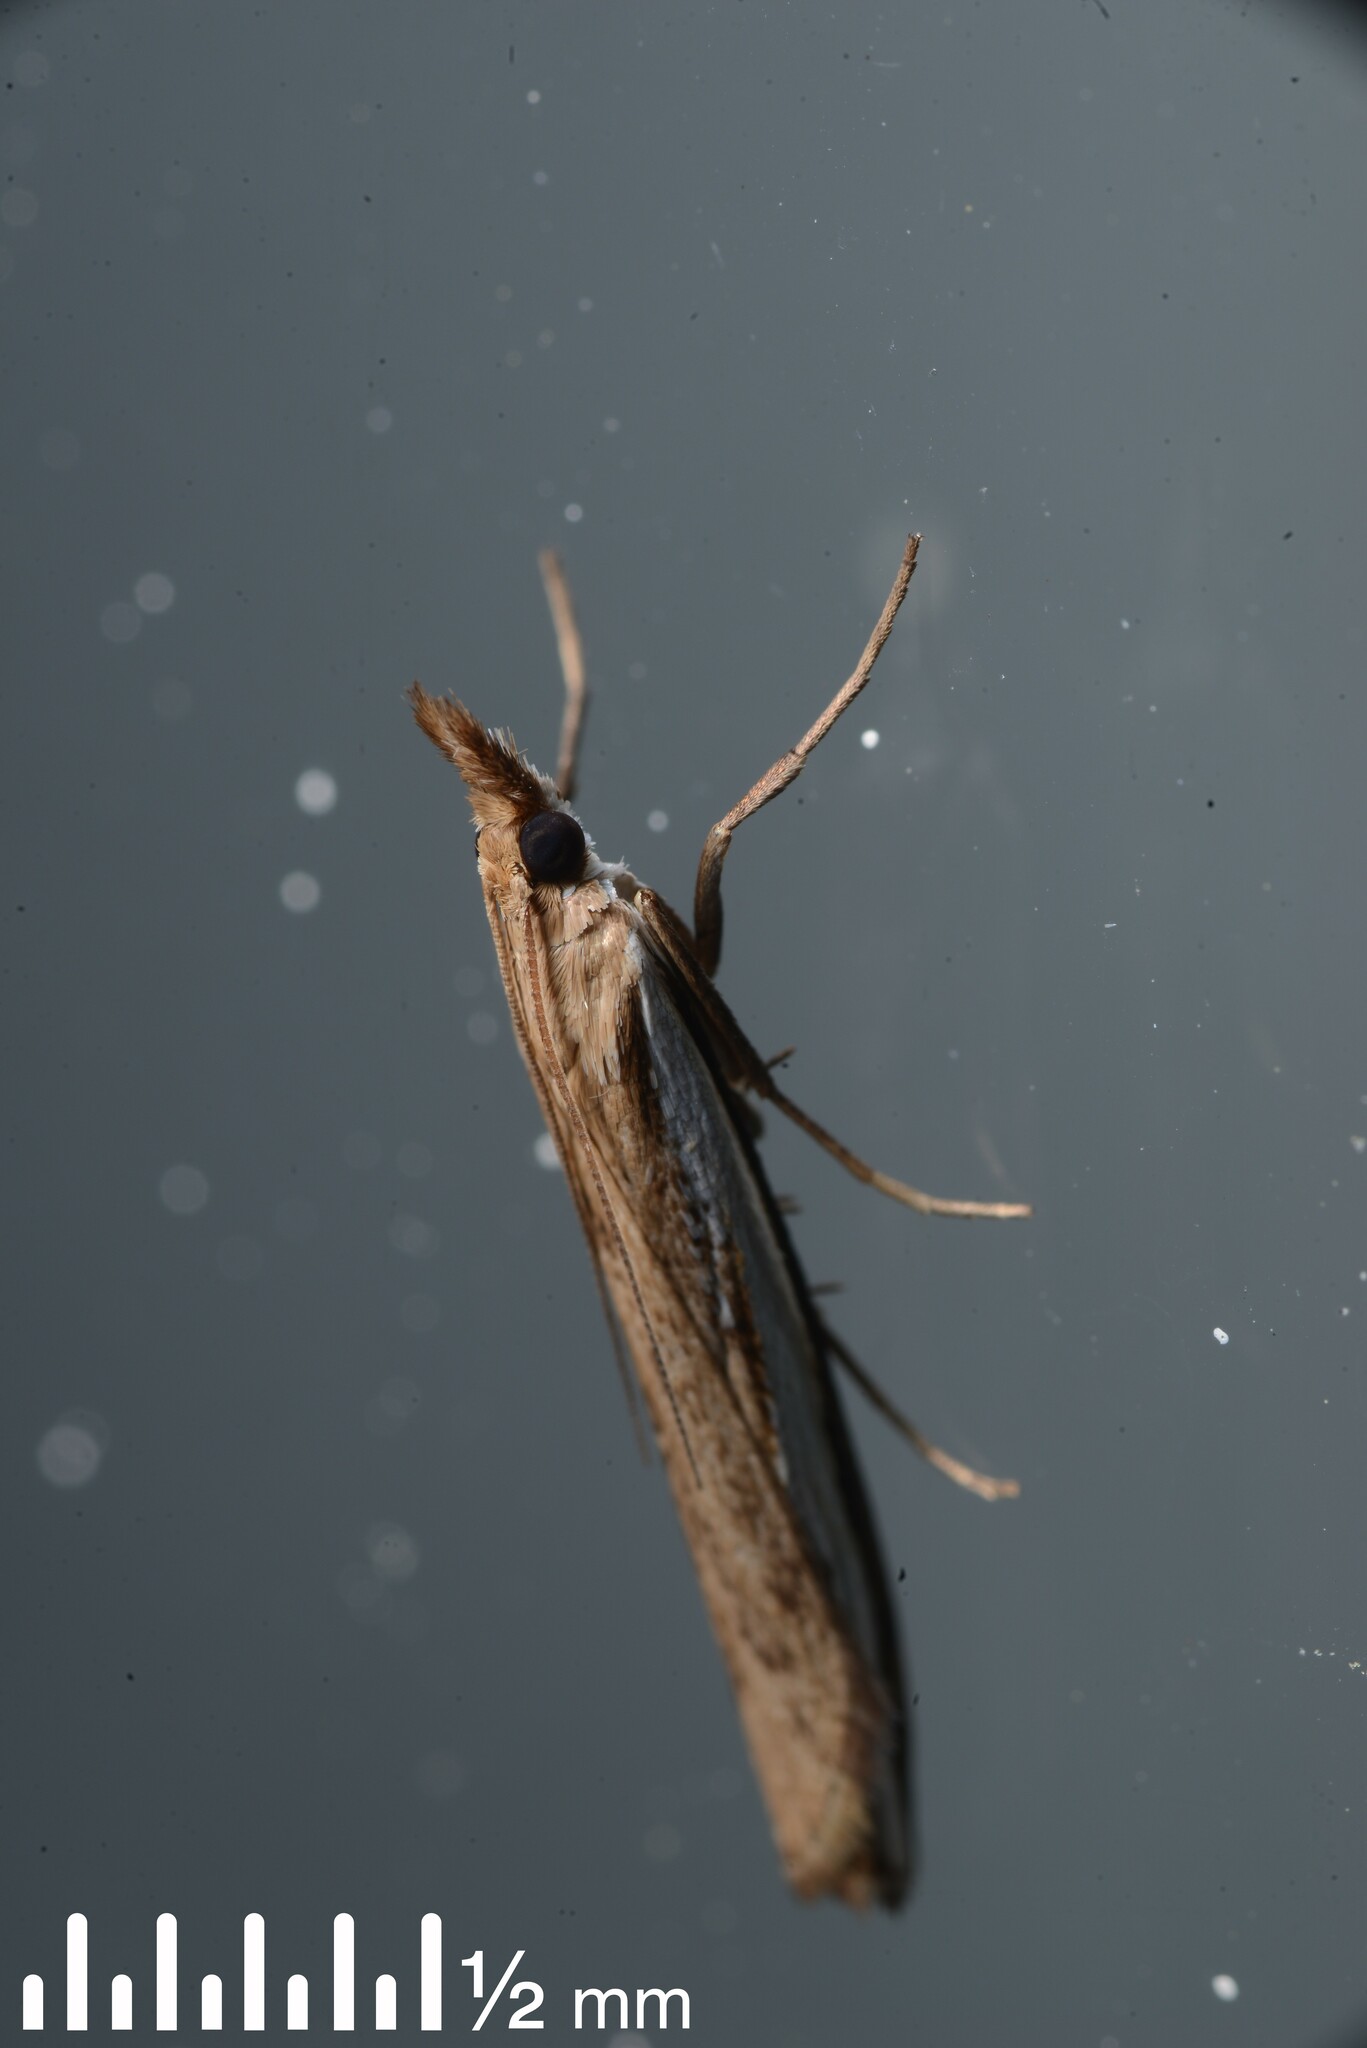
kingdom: Animalia
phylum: Arthropoda
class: Insecta
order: Lepidoptera
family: Crambidae
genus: Orocrambus
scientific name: Orocrambus flexuosellus
